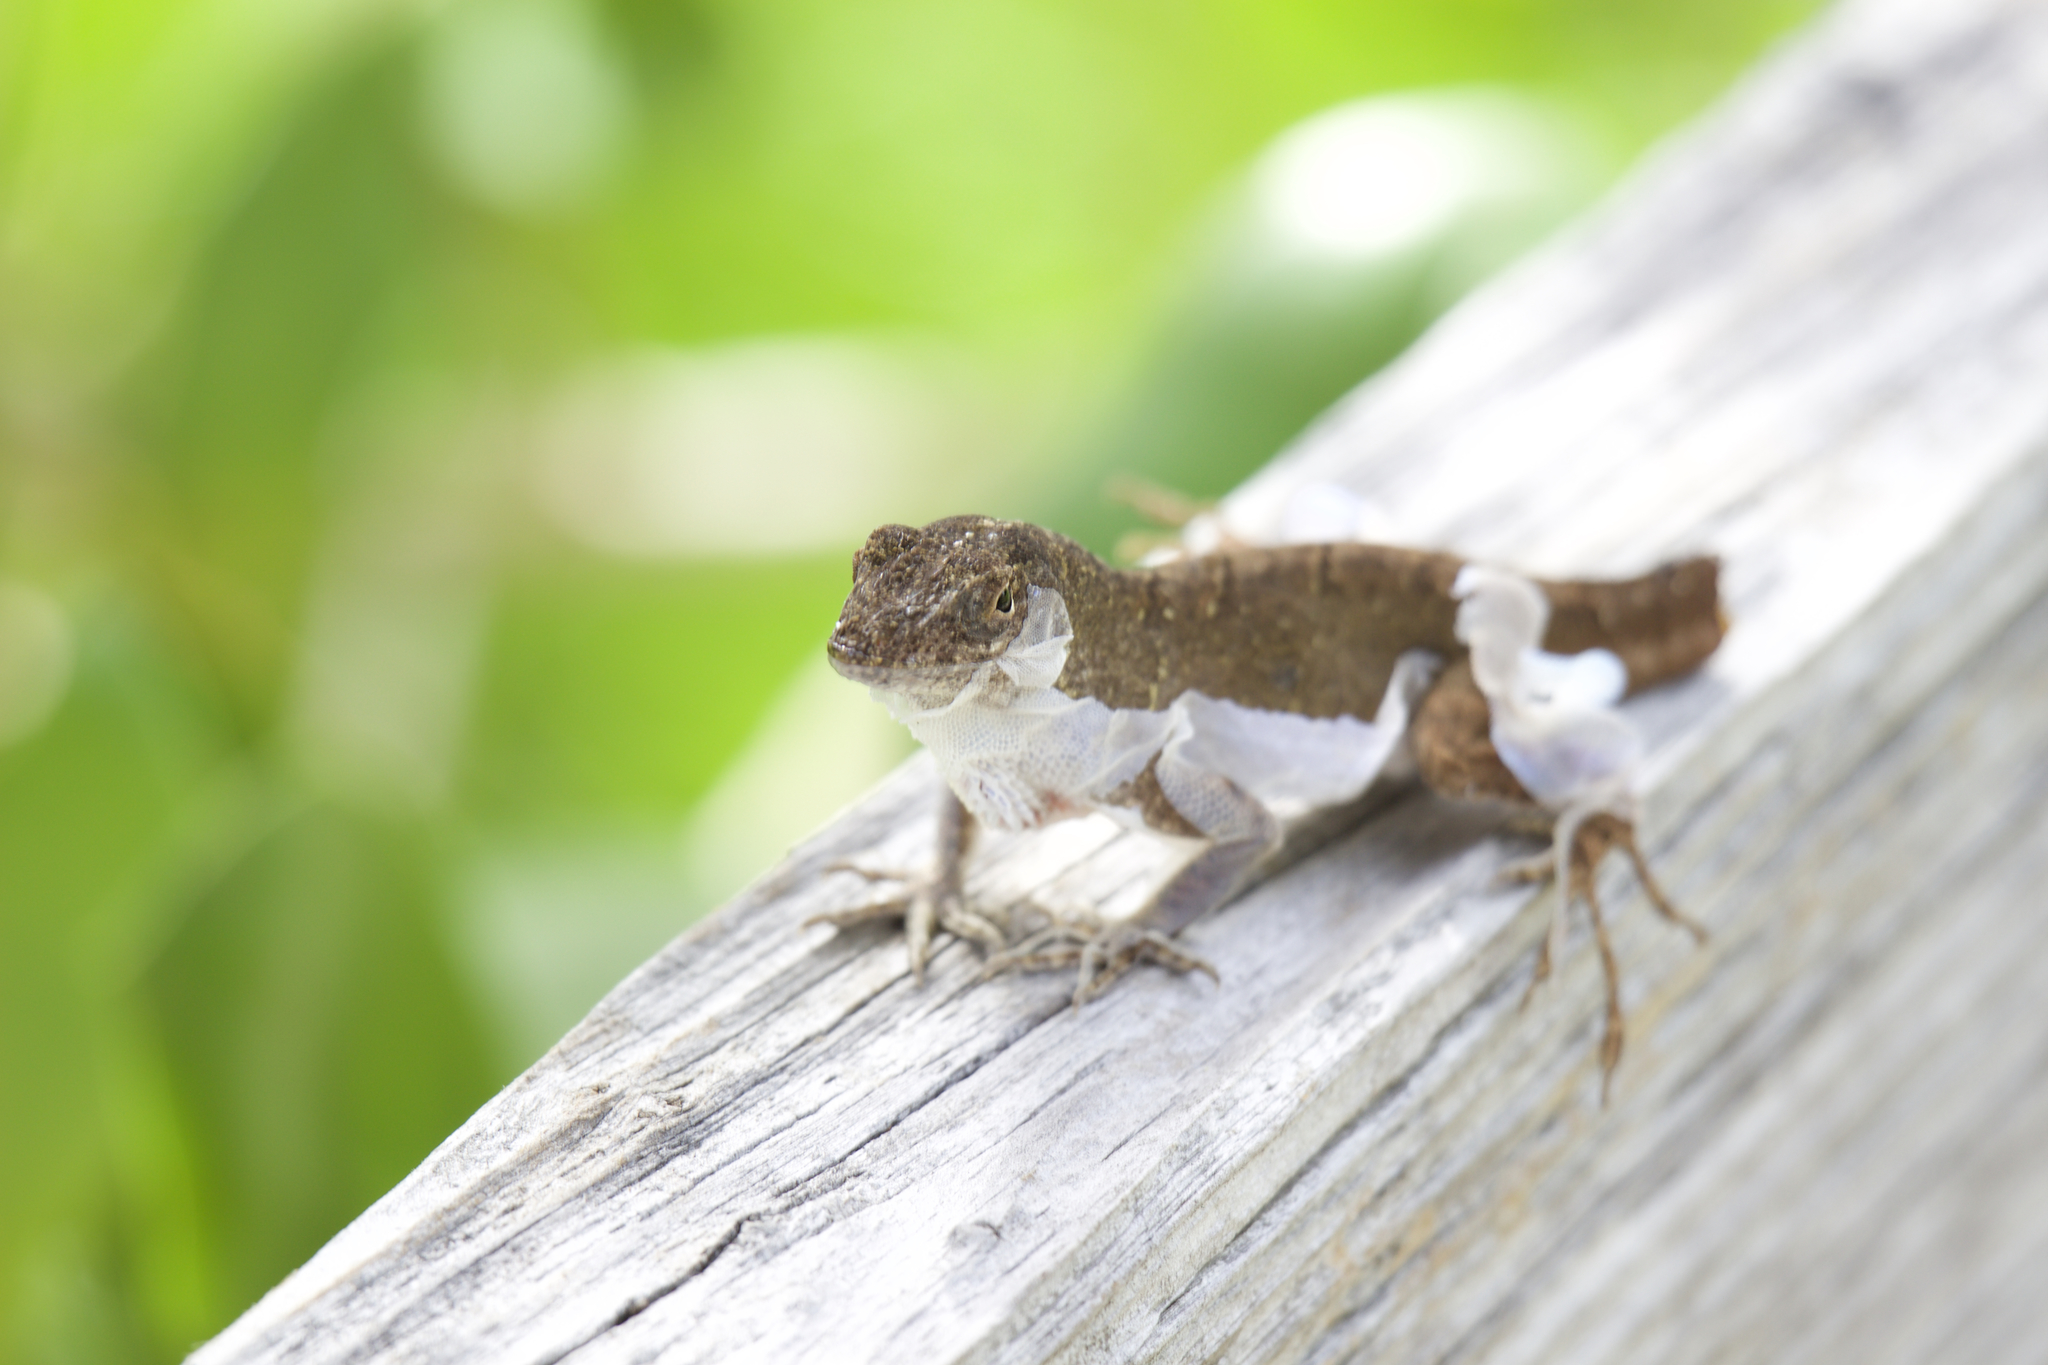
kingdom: Animalia
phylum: Chordata
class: Squamata
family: Dactyloidae
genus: Anolis
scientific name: Anolis sagrei
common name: Brown anole
